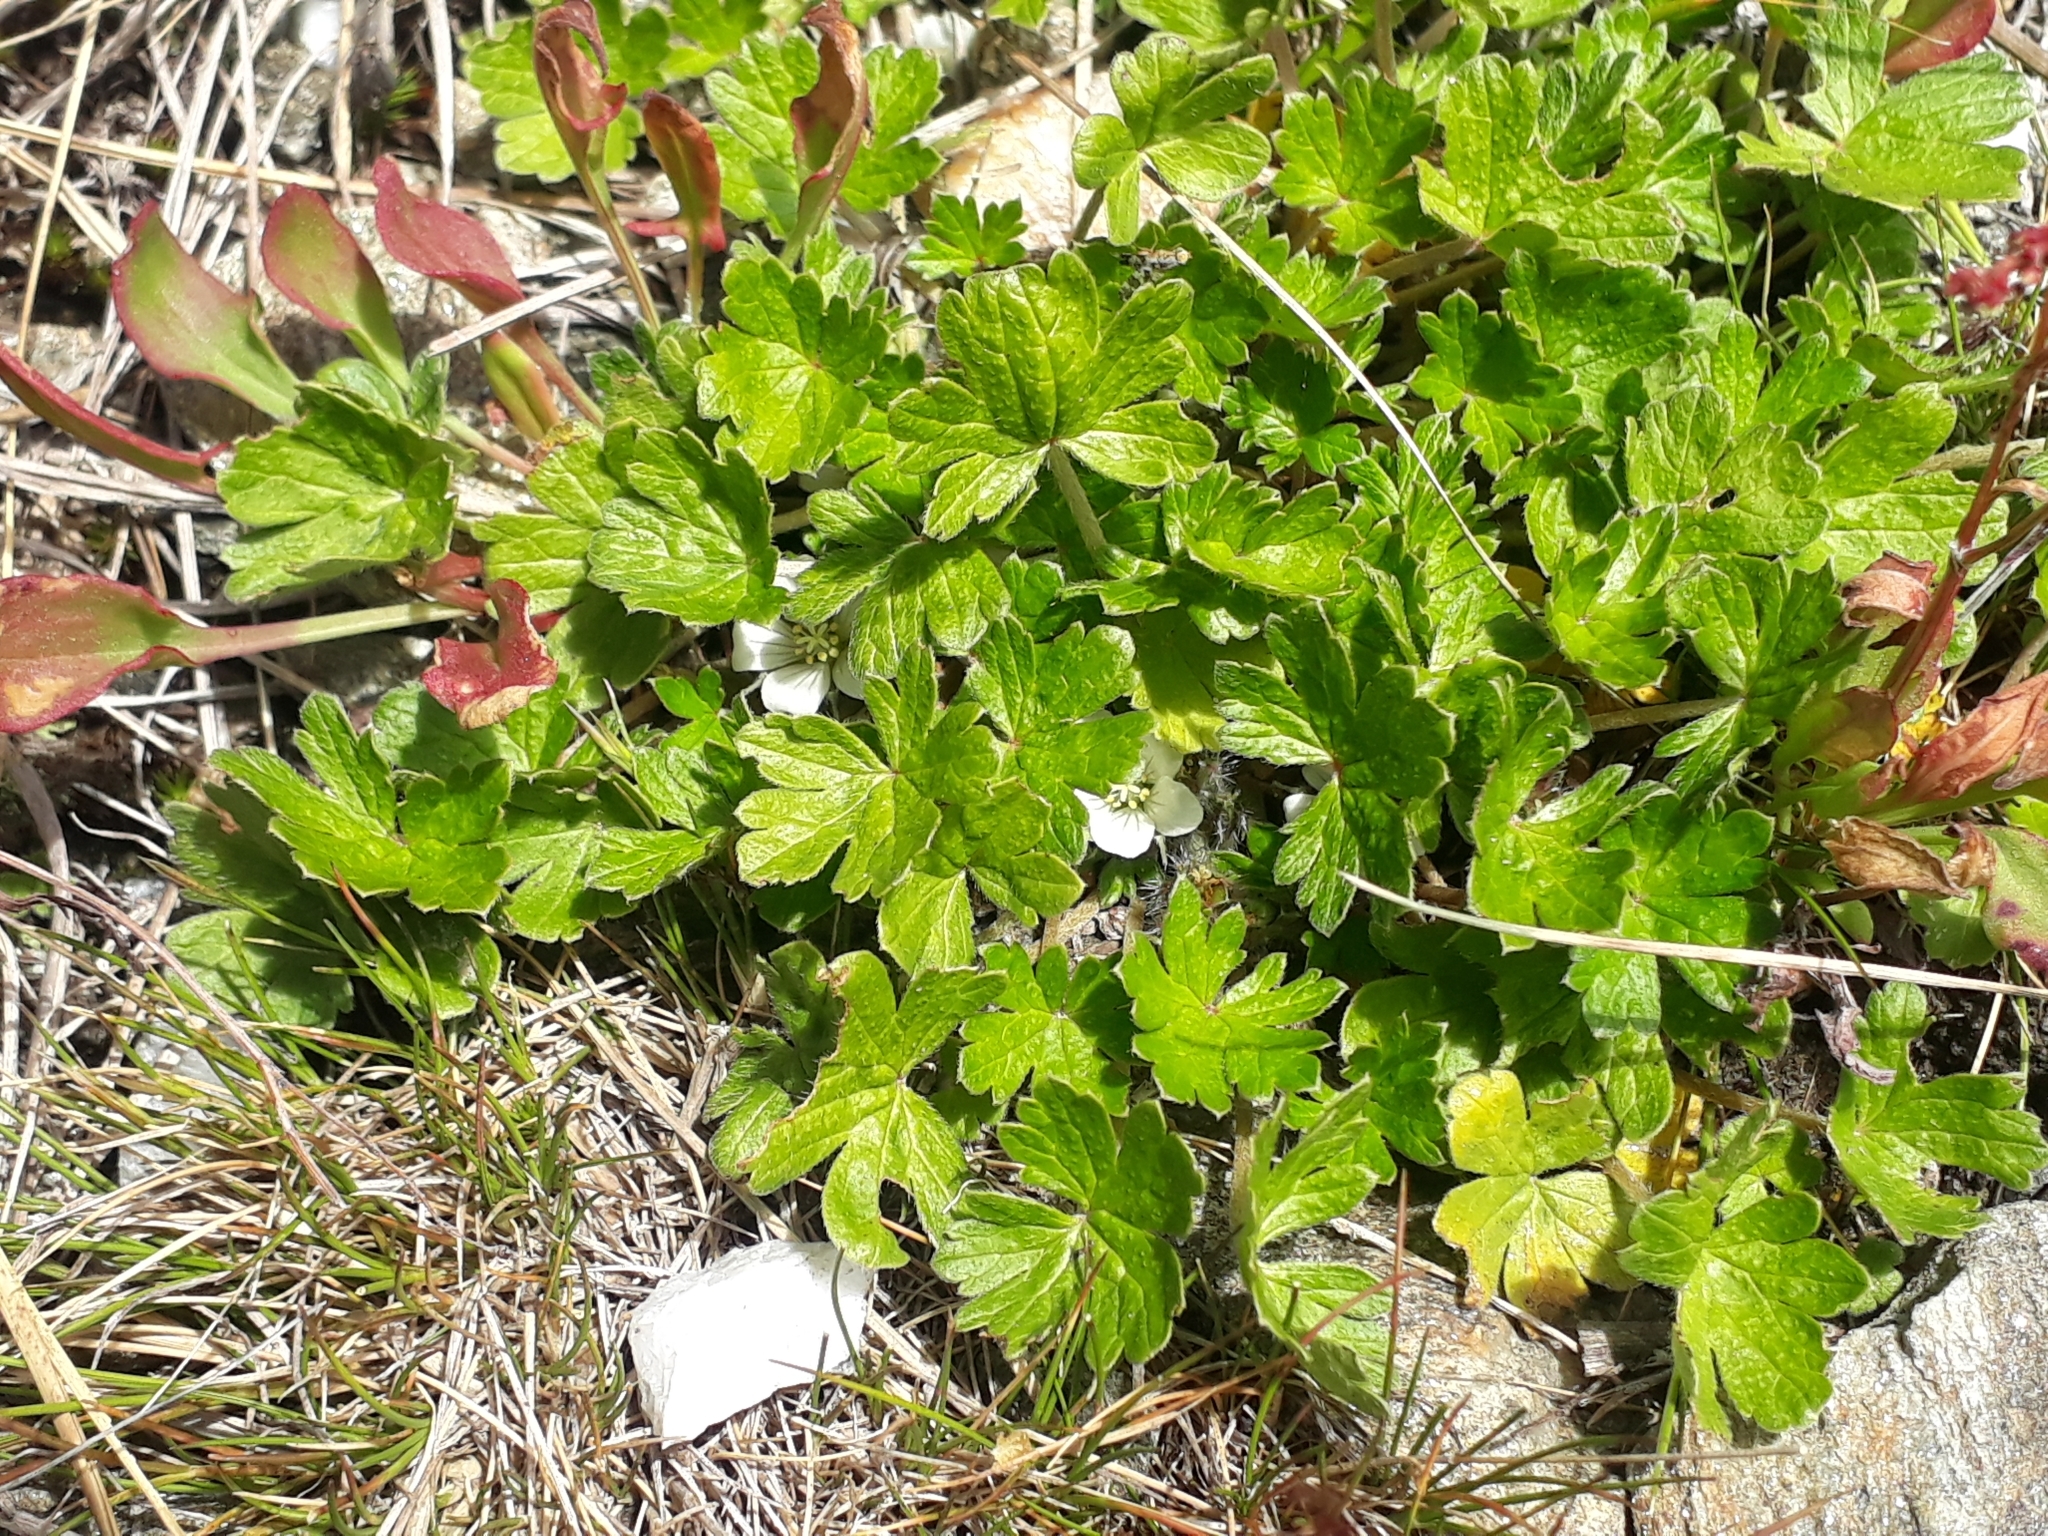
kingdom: Plantae
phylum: Tracheophyta
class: Magnoliopsida
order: Geraniales
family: Geraniaceae
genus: Geranium
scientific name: Geranium brevicaule
